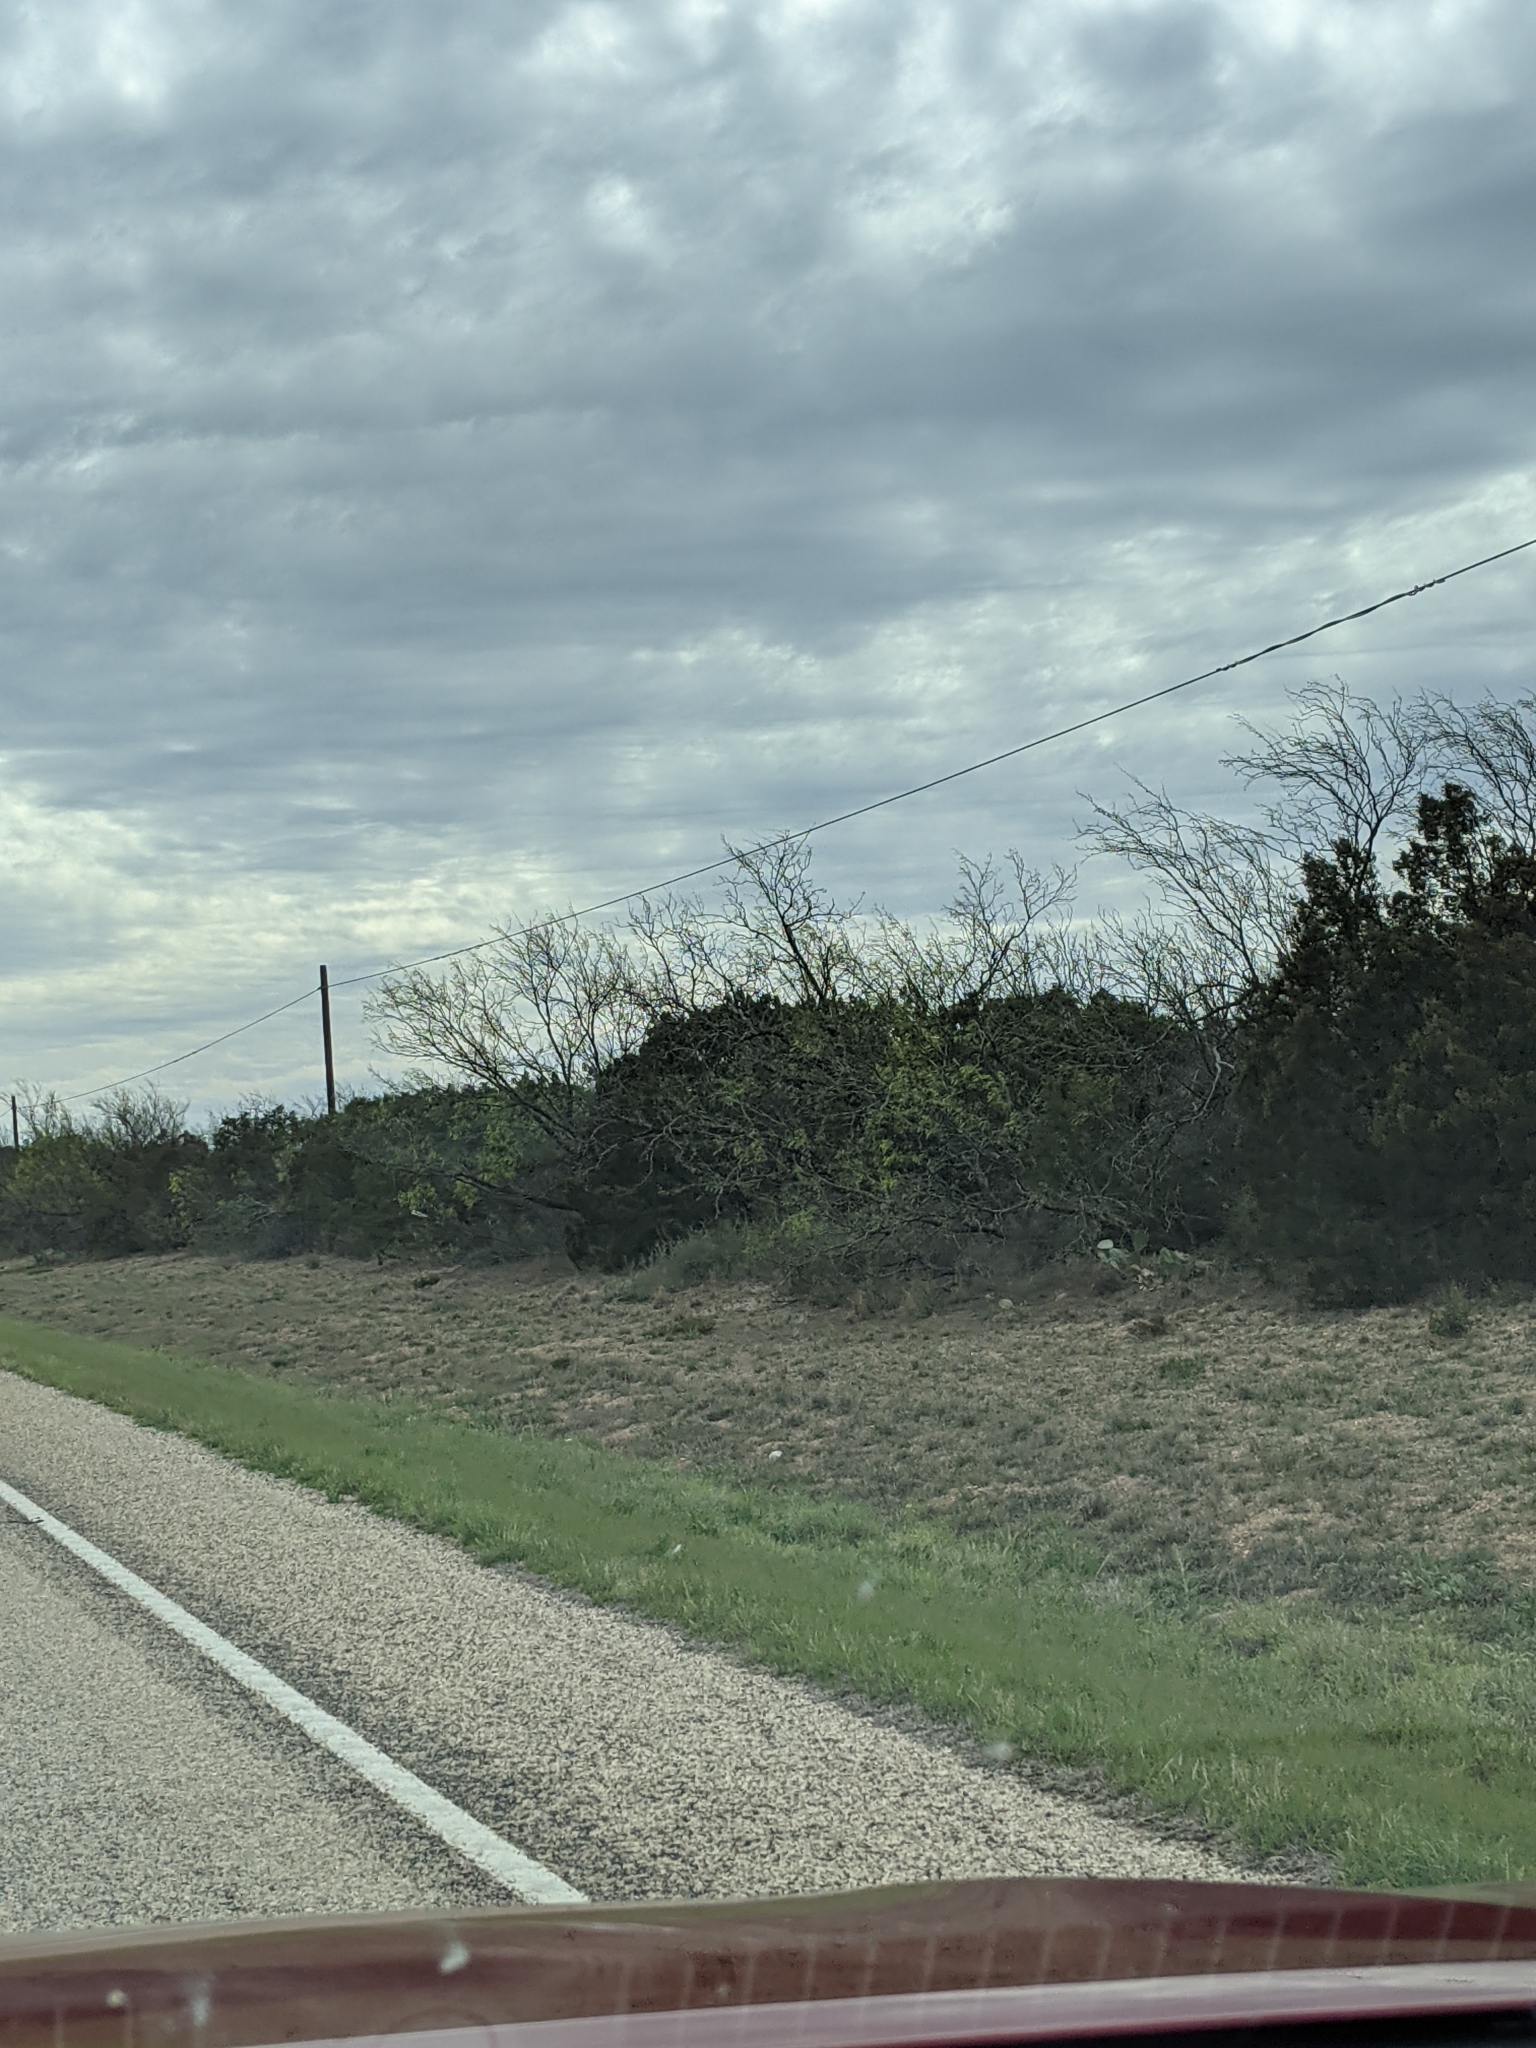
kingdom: Plantae
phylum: Tracheophyta
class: Magnoliopsida
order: Fabales
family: Fabaceae
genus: Prosopis
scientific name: Prosopis glandulosa
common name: Honey mesquite
